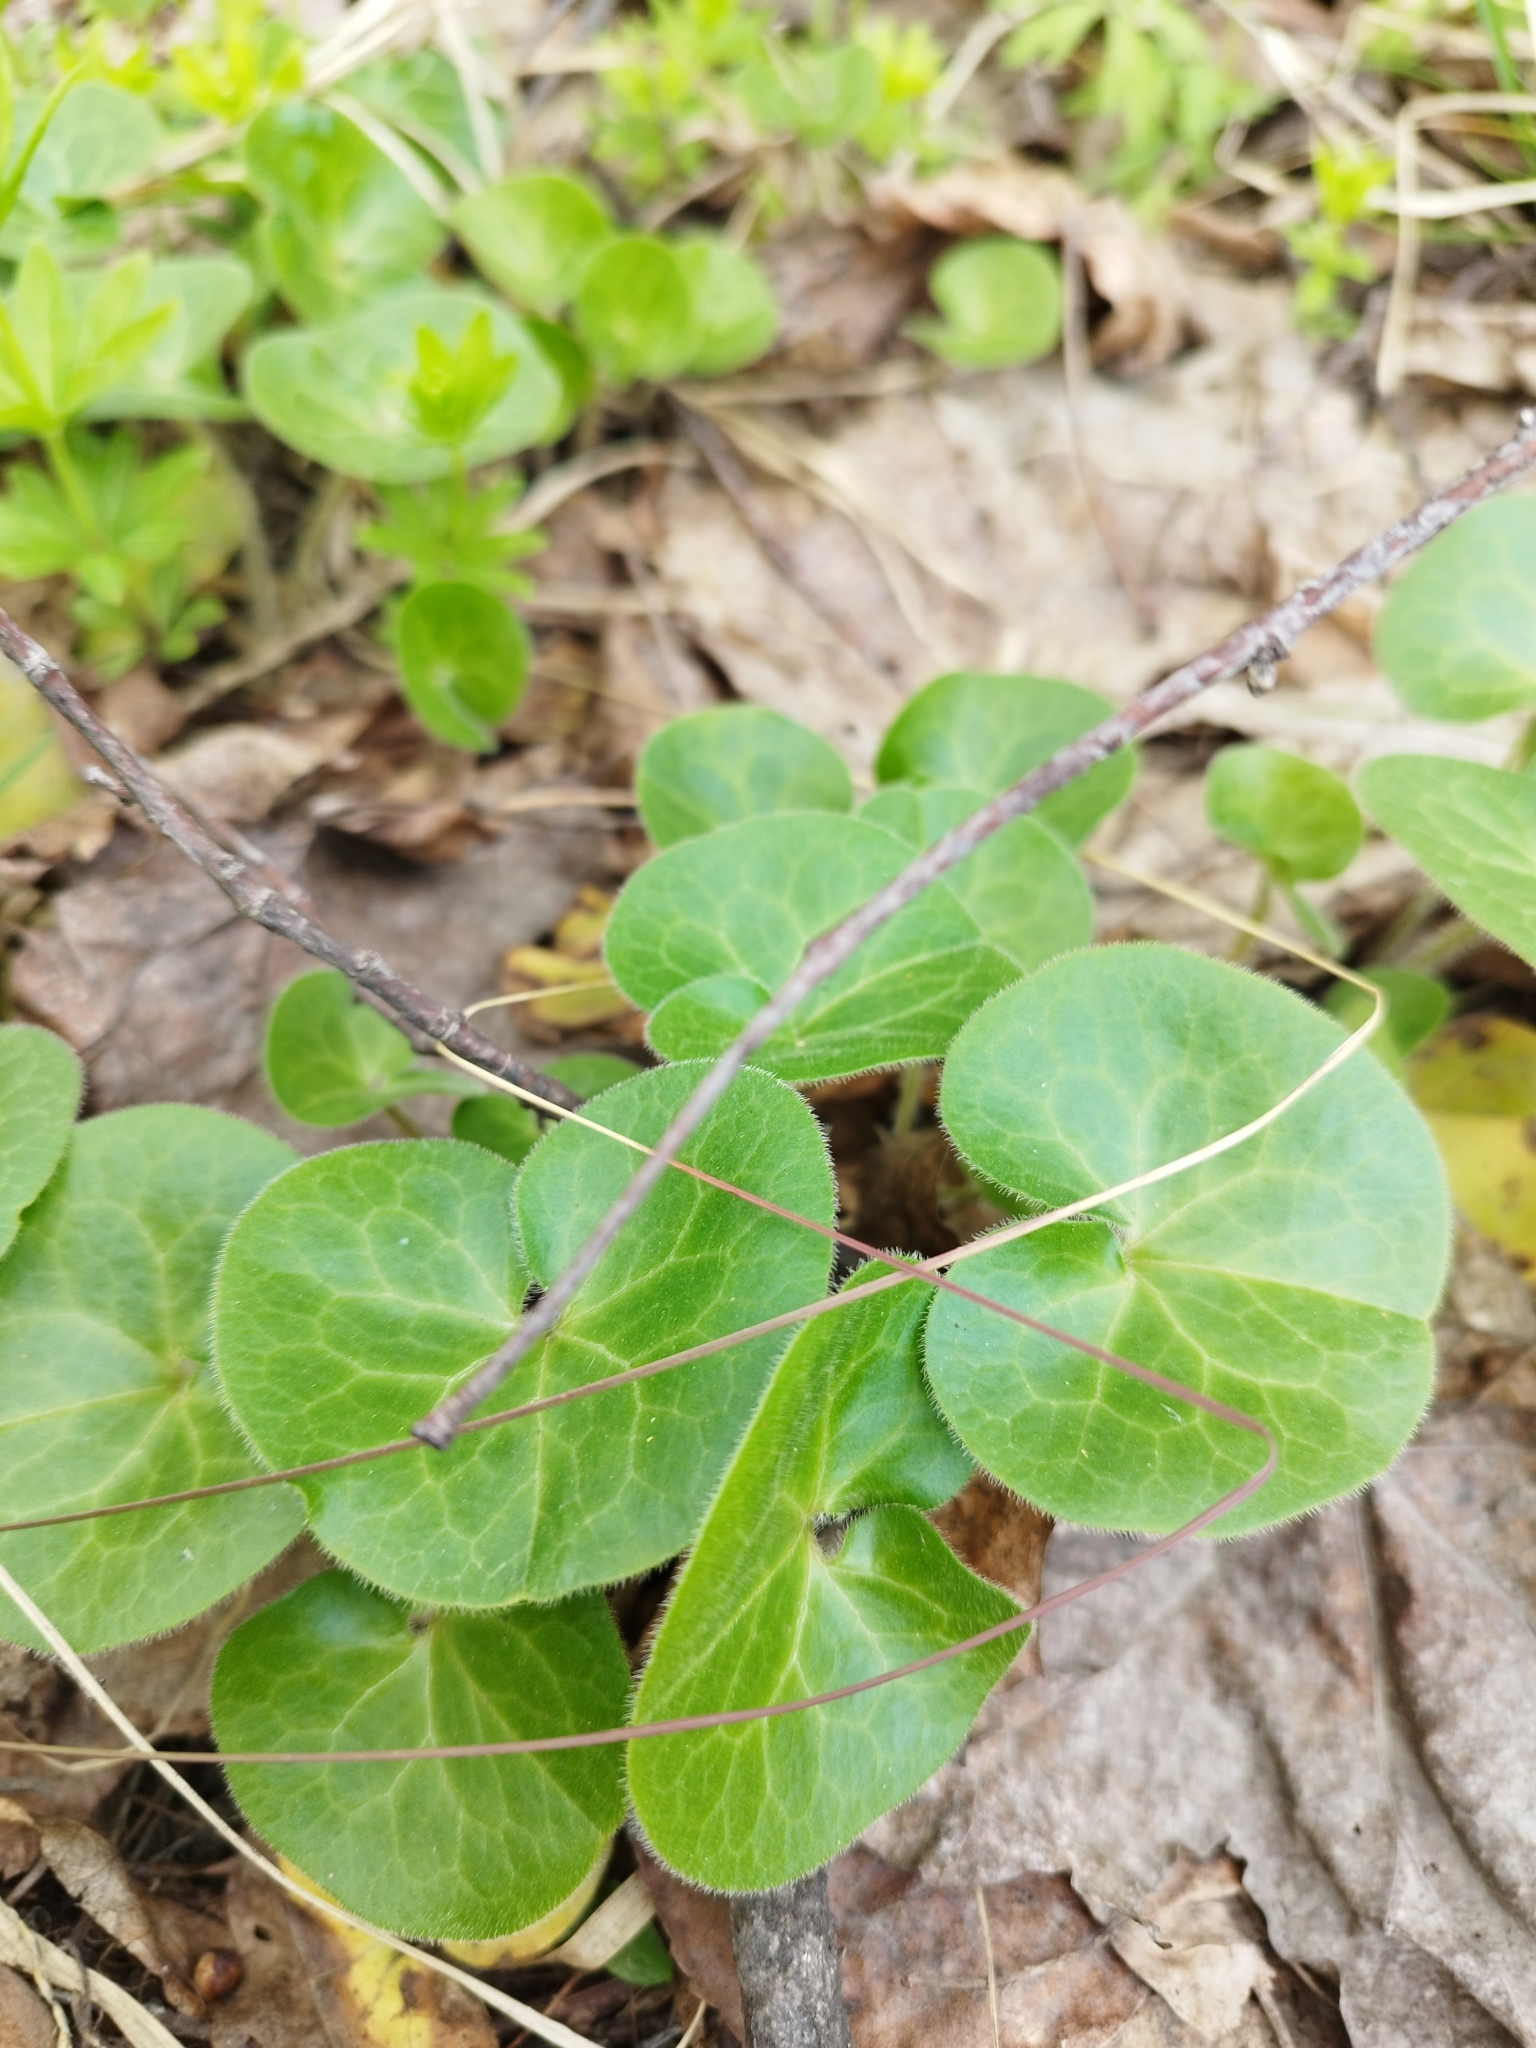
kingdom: Plantae
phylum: Tracheophyta
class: Magnoliopsida
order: Piperales
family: Aristolochiaceae
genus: Asarum
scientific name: Asarum europaeum
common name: Asarabacca
